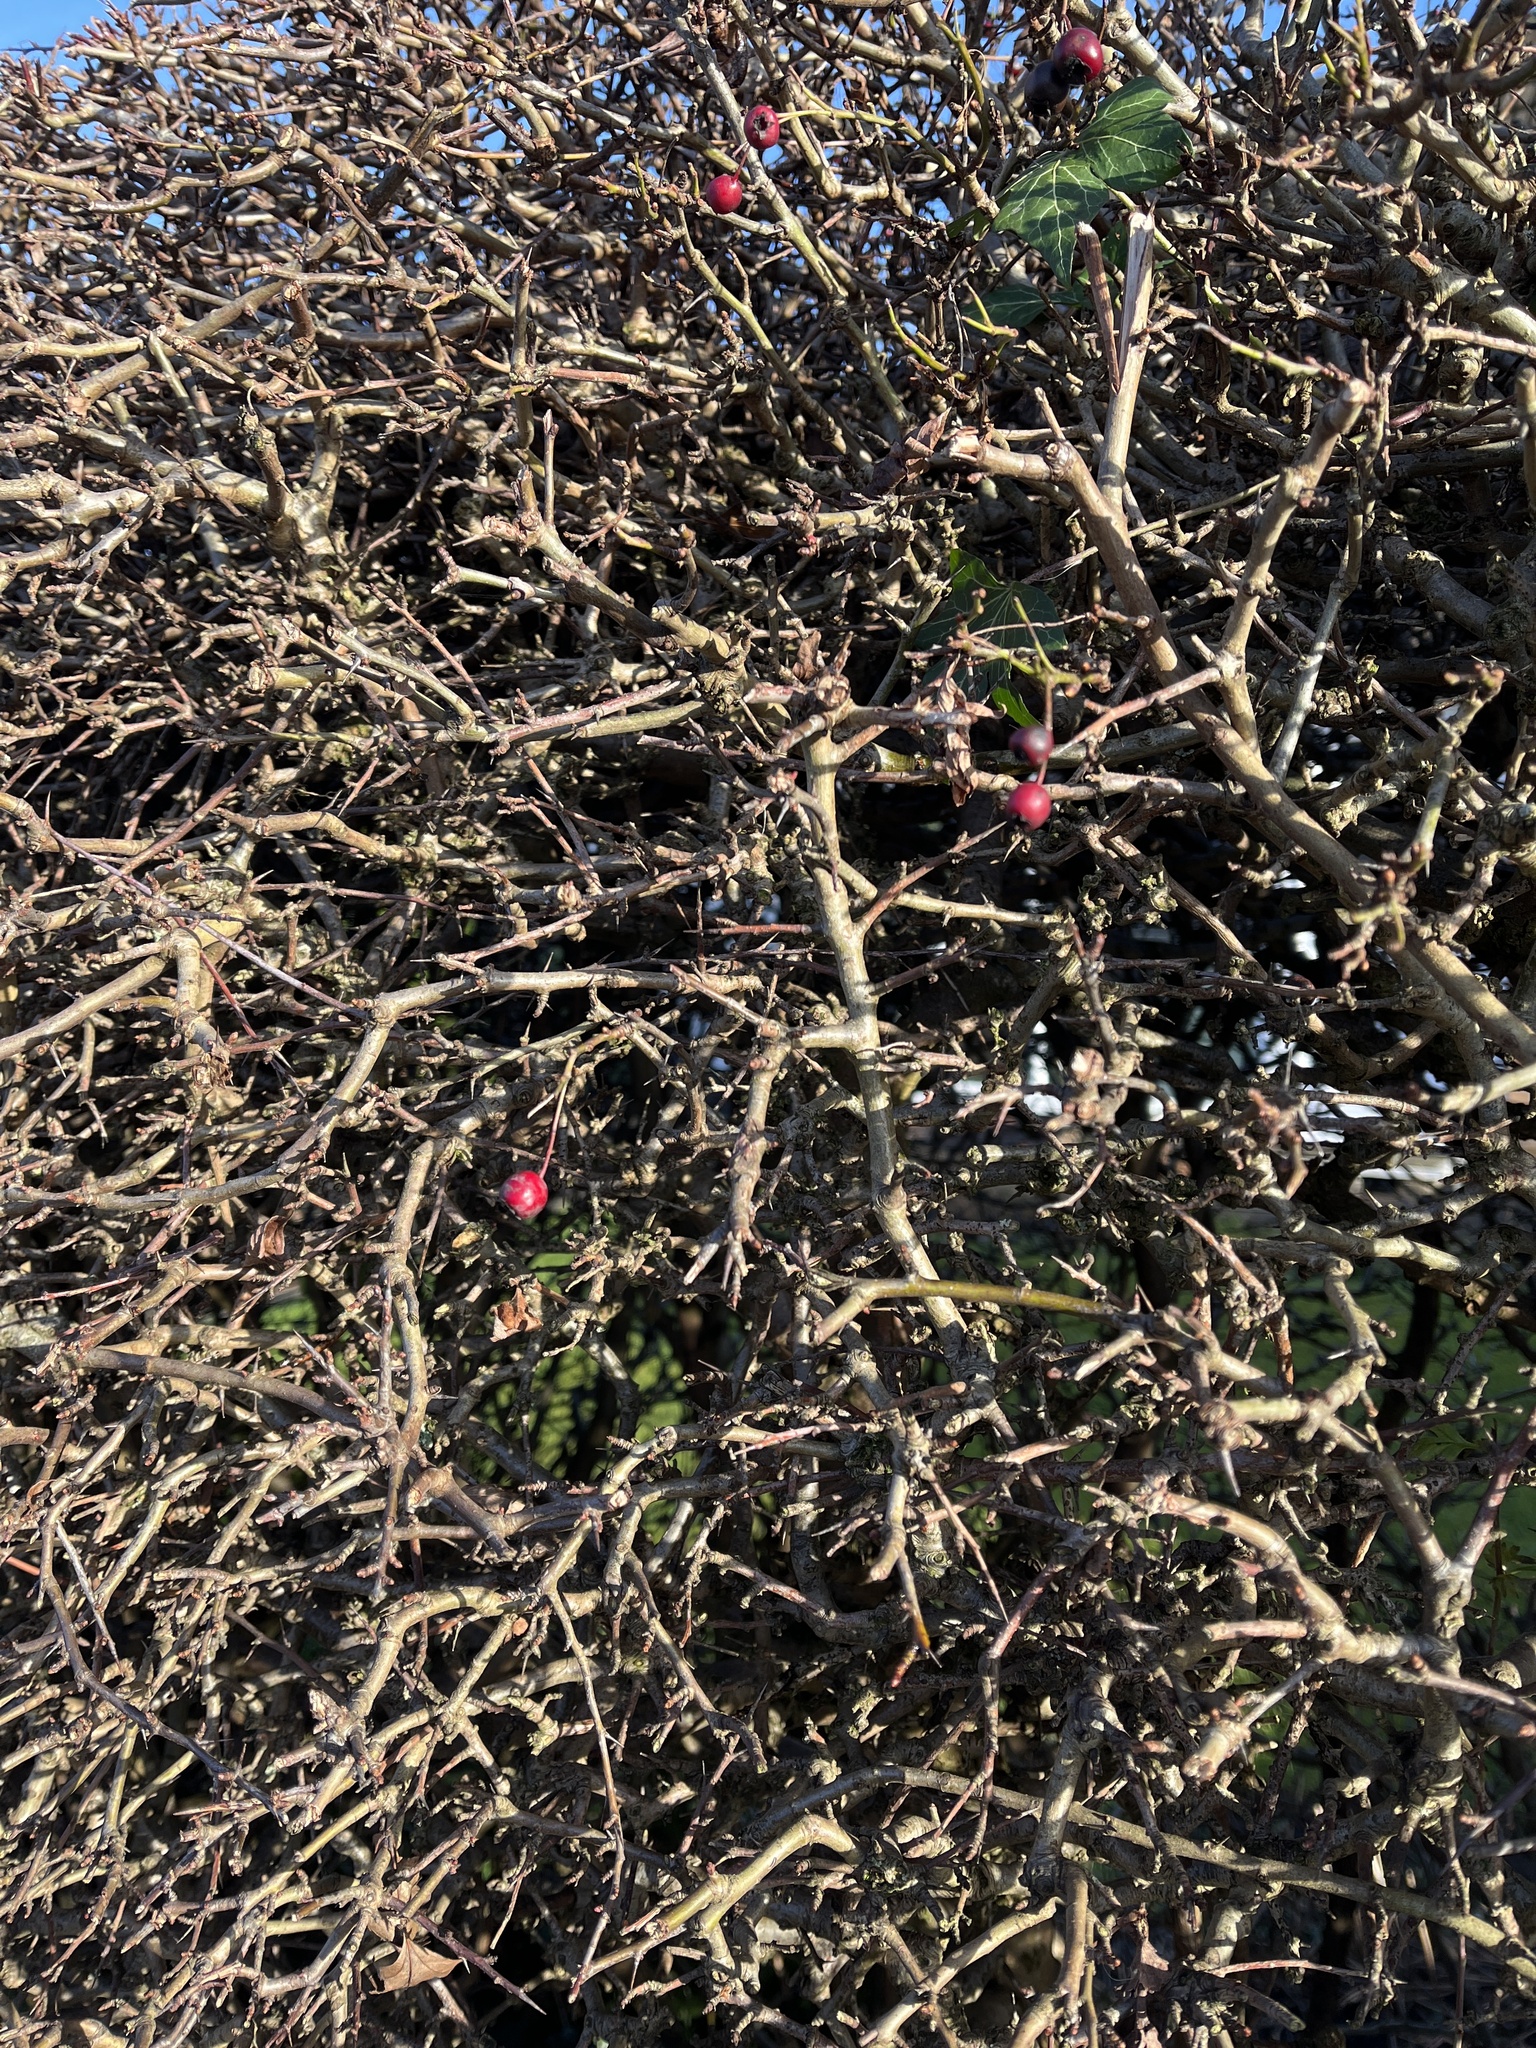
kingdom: Plantae
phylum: Tracheophyta
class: Magnoliopsida
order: Rosales
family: Rosaceae
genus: Crataegus
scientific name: Crataegus monogyna
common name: Hawthorn
